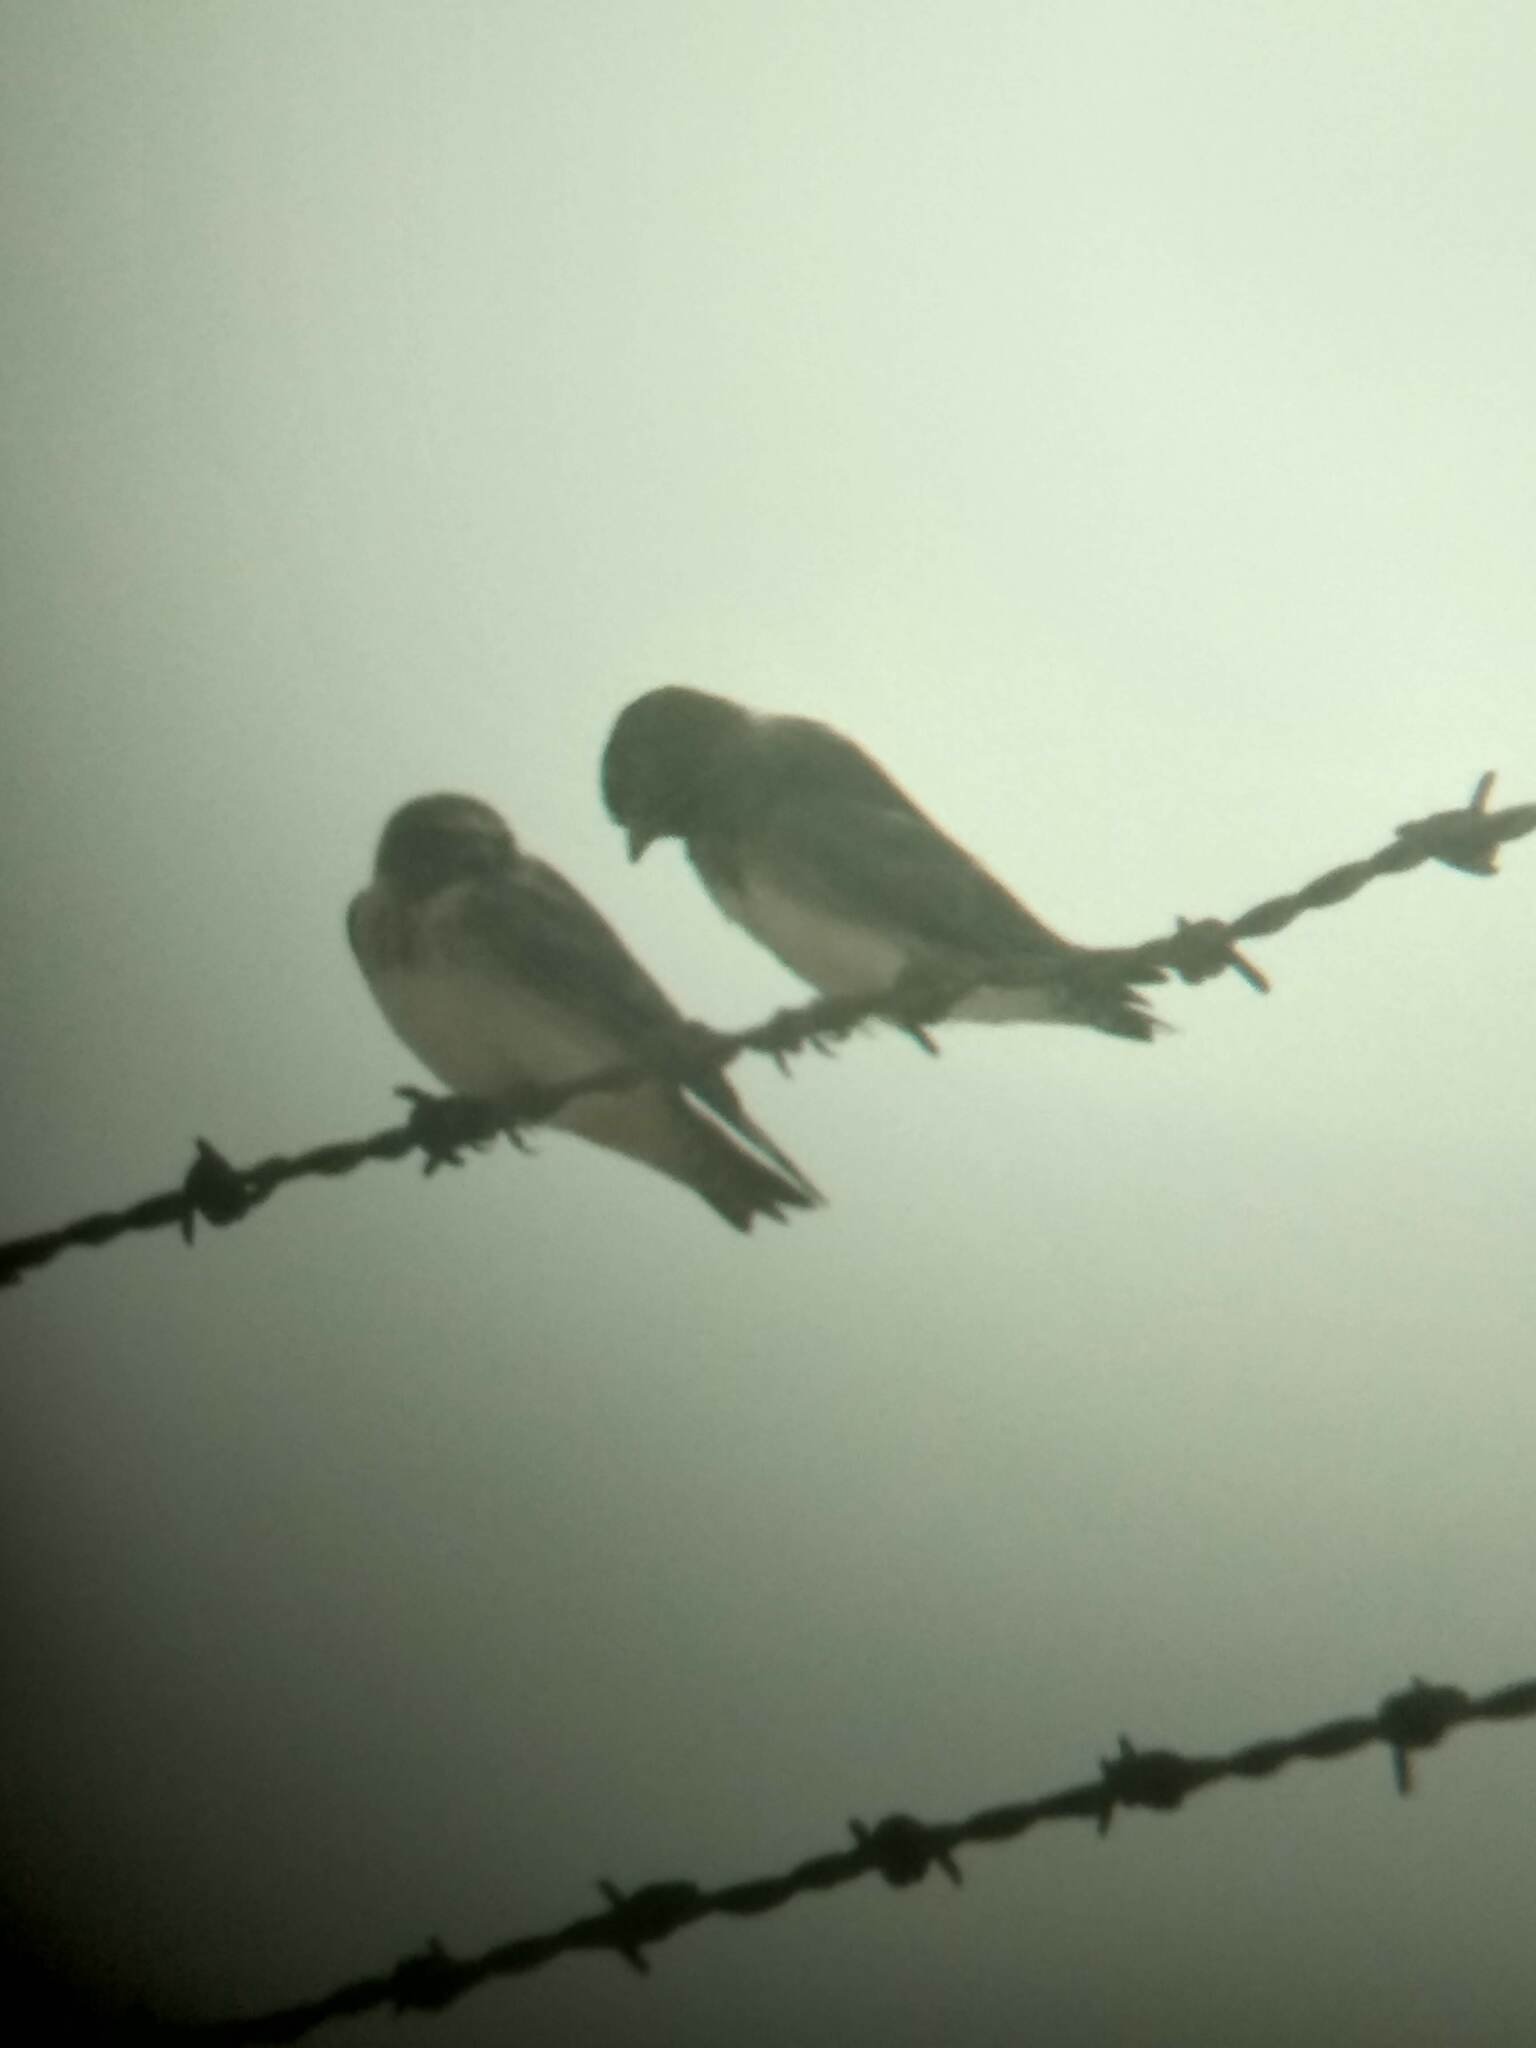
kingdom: Animalia
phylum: Chordata
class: Aves
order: Passeriformes
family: Hirundinidae
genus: Petrochelidon
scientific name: Petrochelidon pyrrhonota
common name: American cliff swallow
